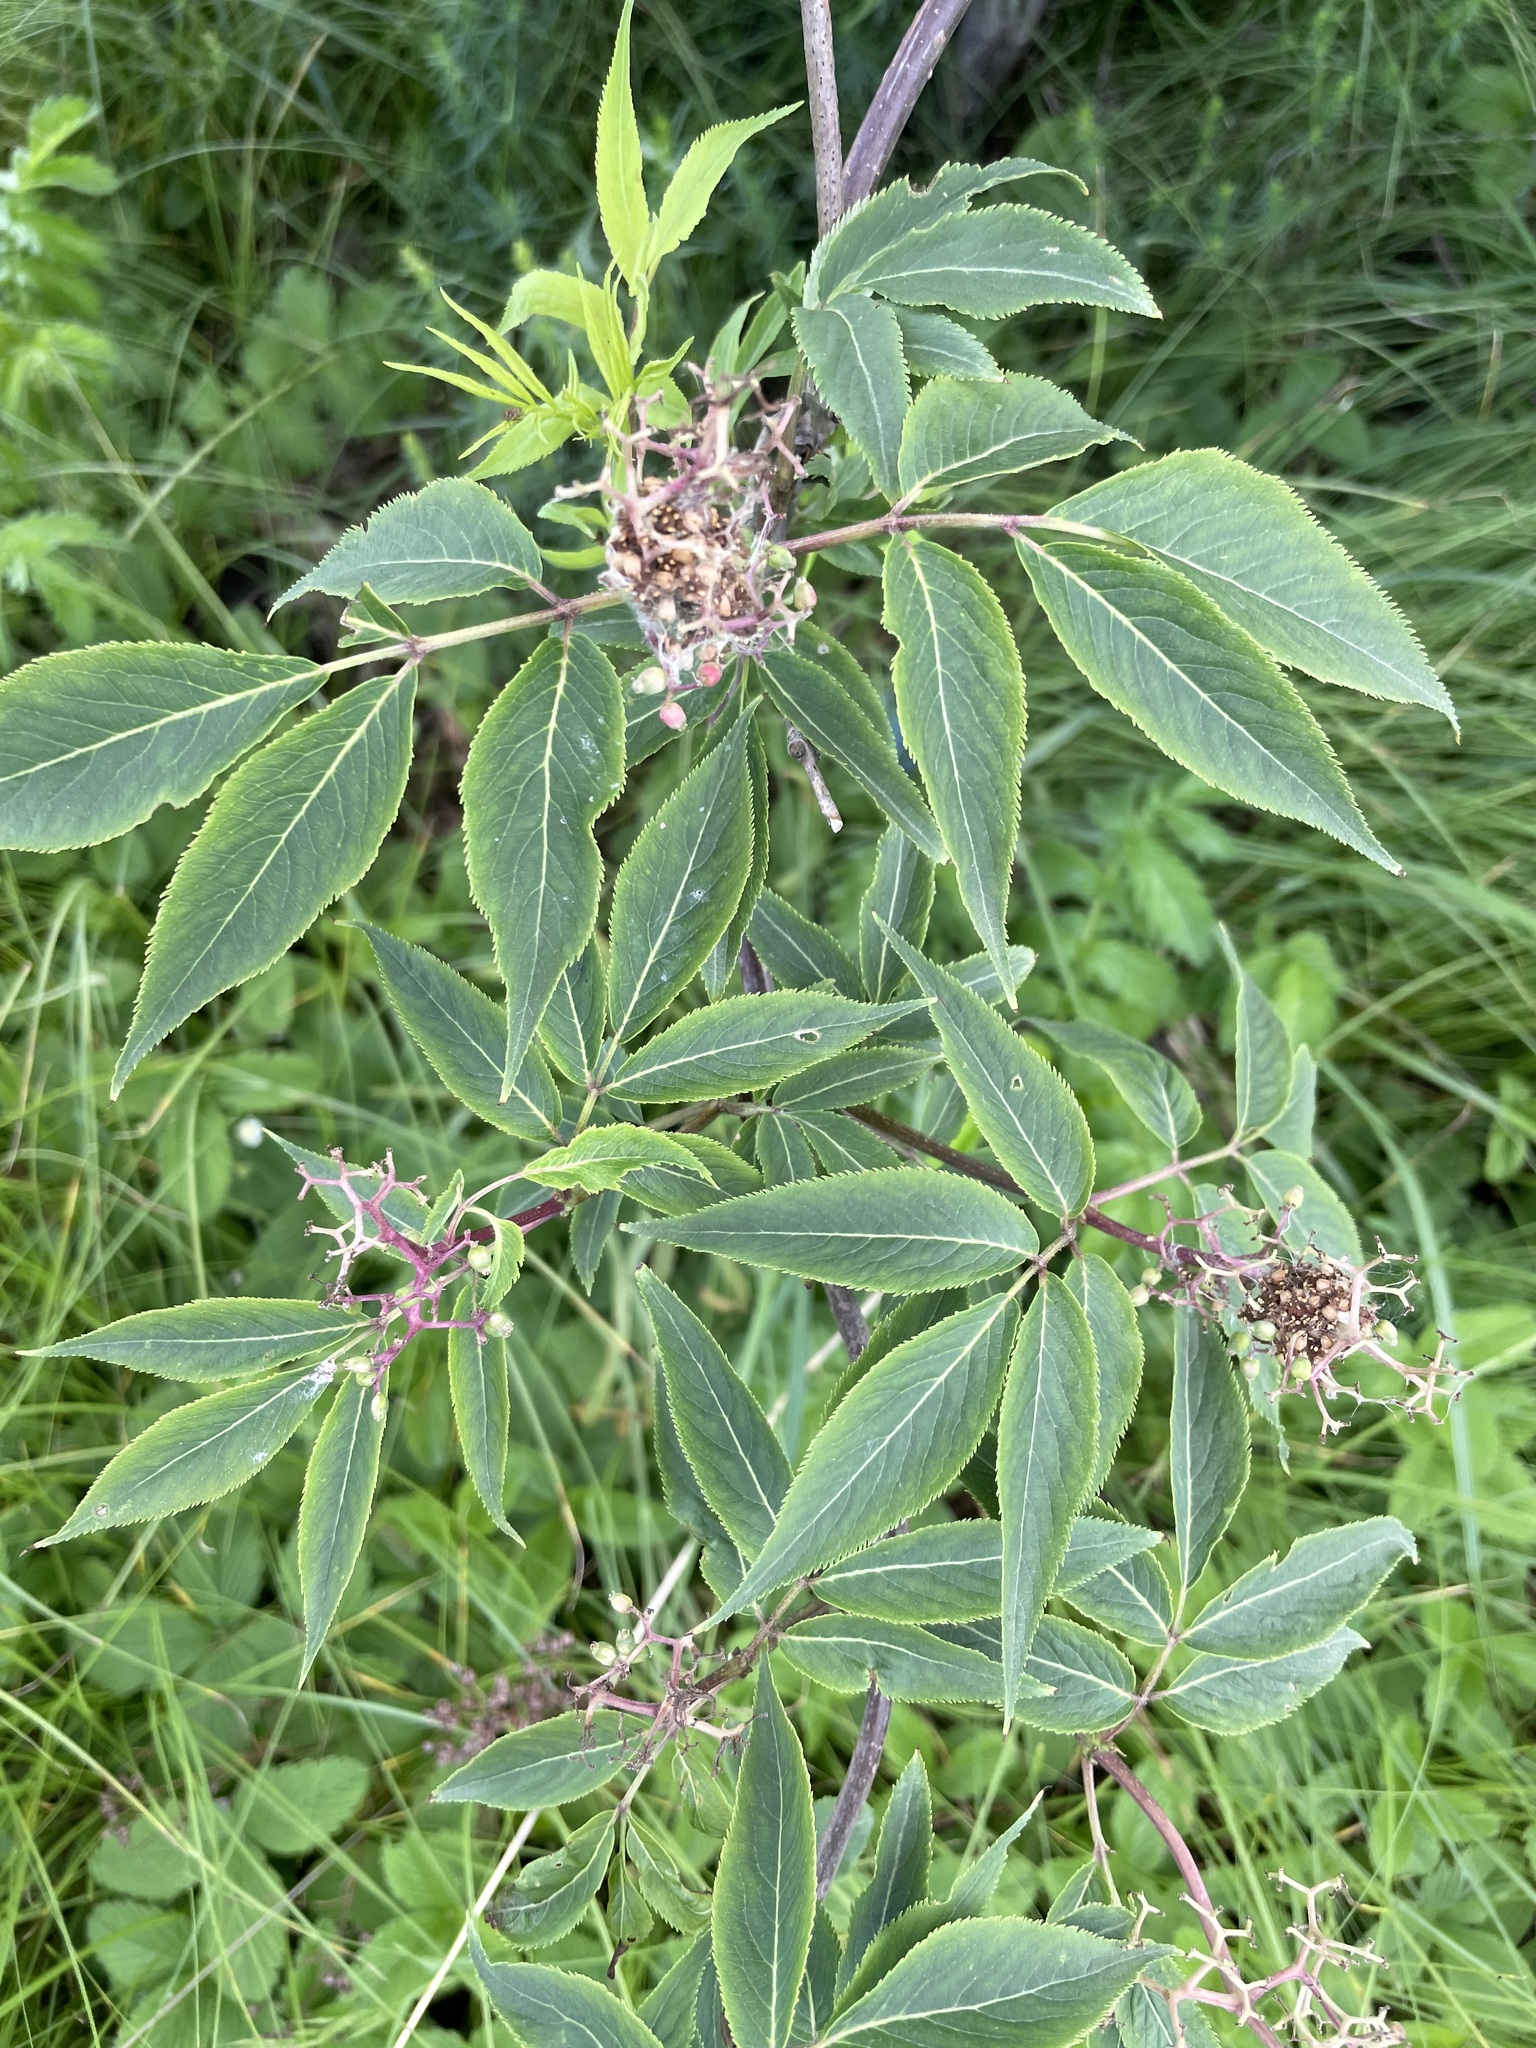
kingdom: Plantae
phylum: Tracheophyta
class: Magnoliopsida
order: Dipsacales
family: Viburnaceae
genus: Sambucus
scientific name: Sambucus racemosa
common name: Red-berried elder
